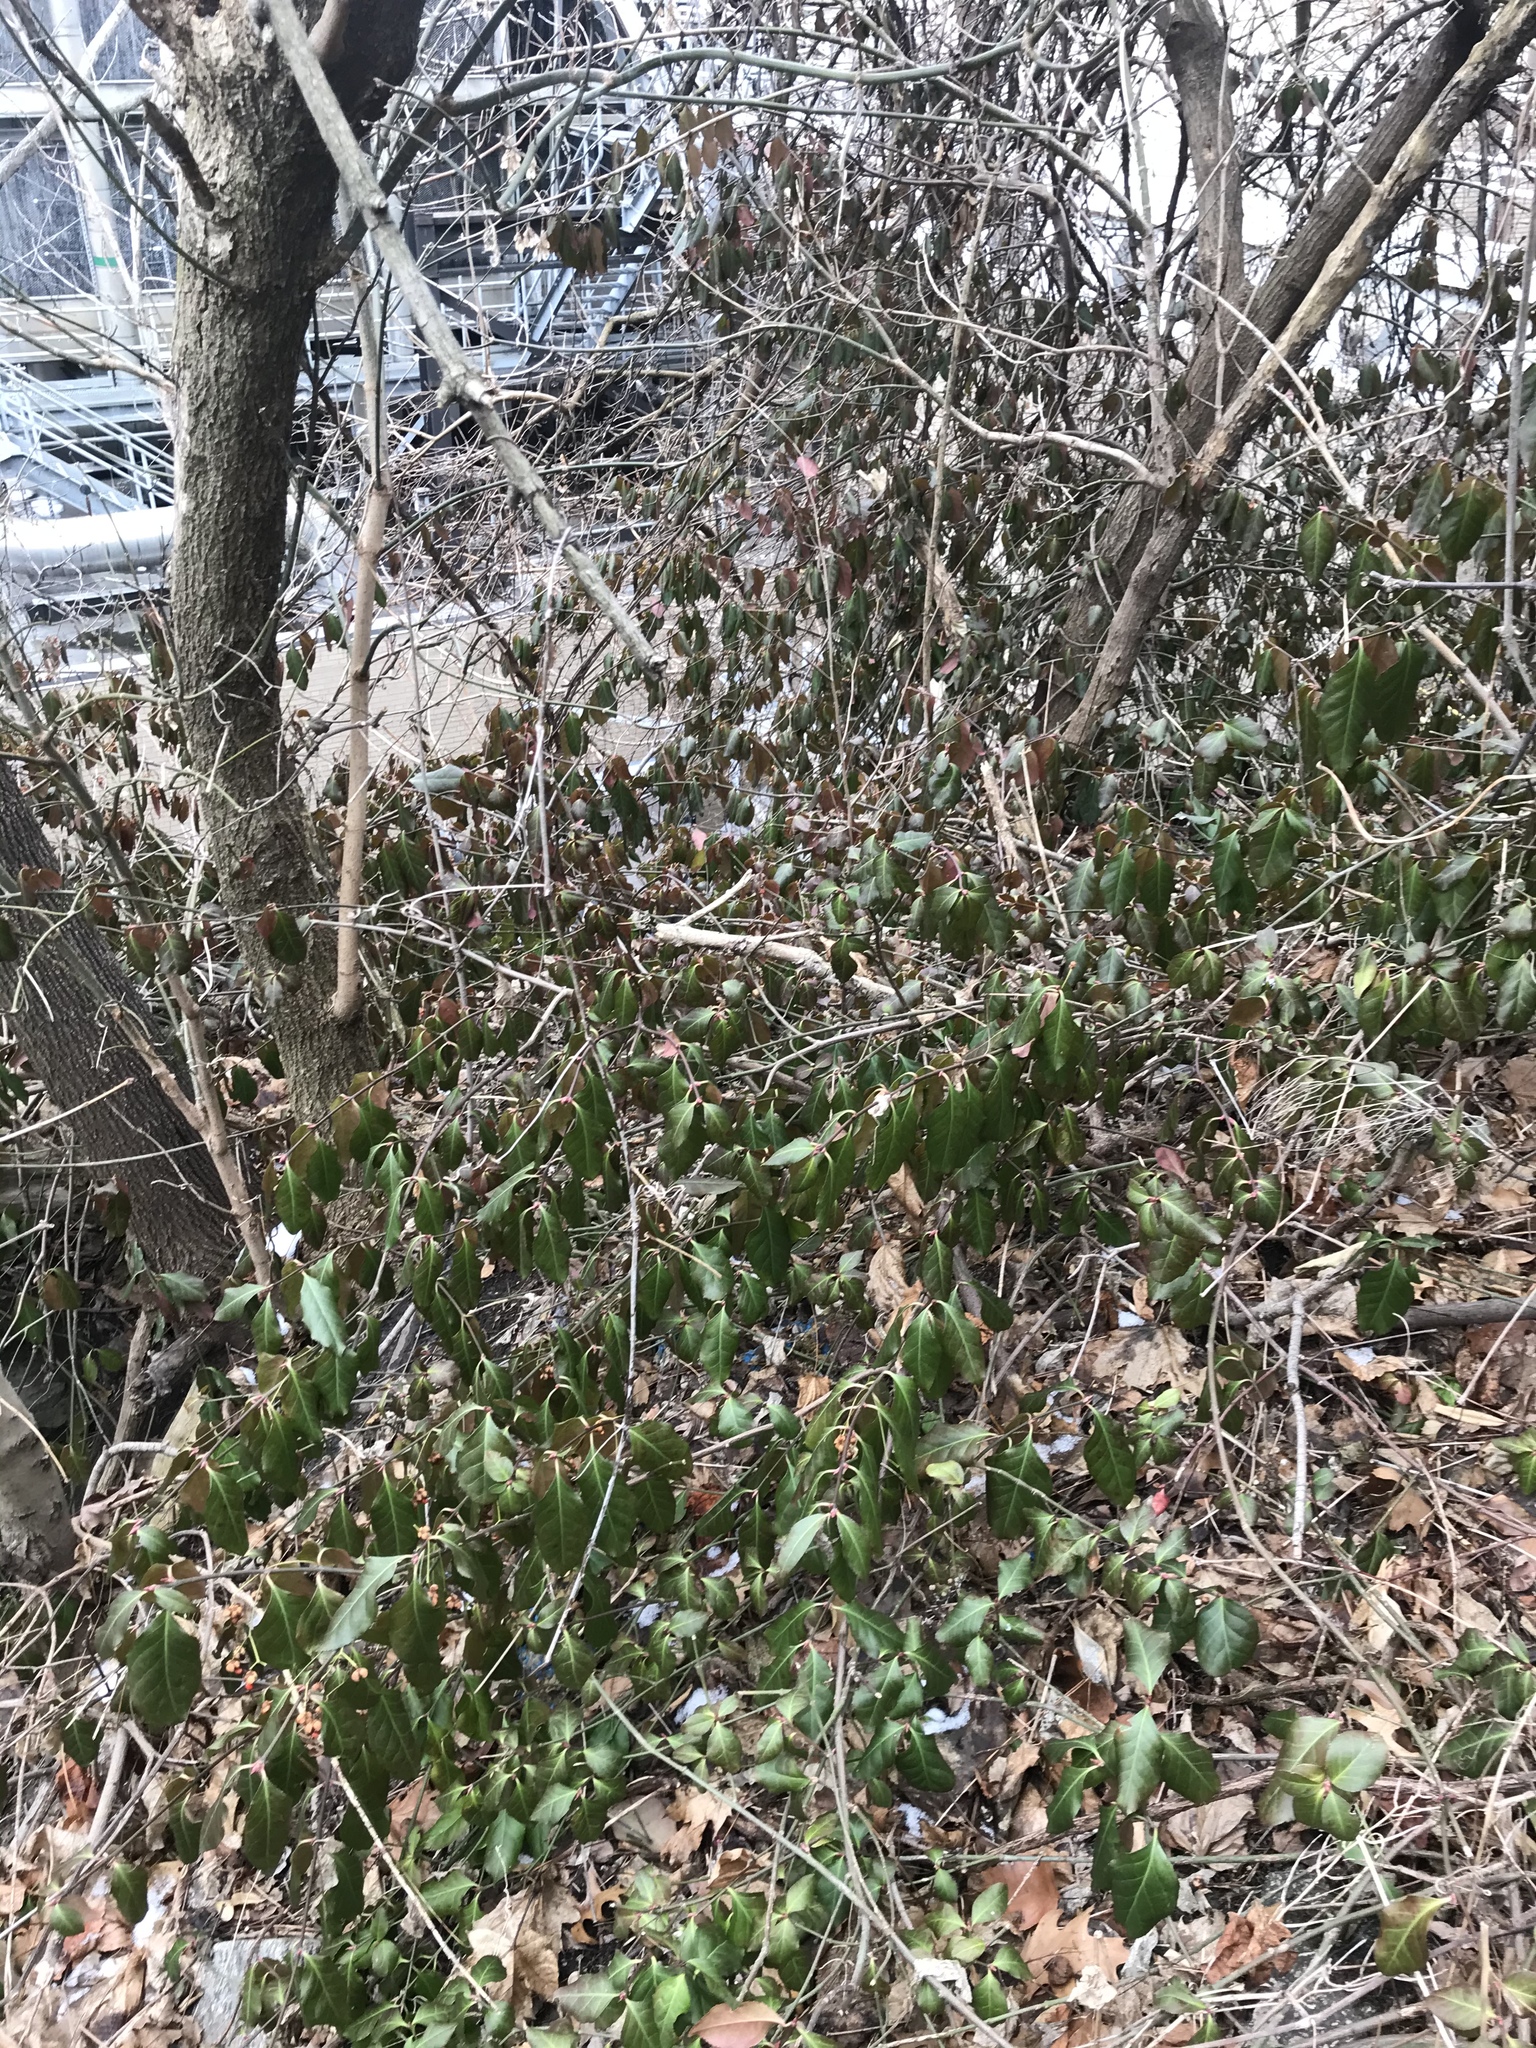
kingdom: Plantae
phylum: Tracheophyta
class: Magnoliopsida
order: Celastrales
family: Celastraceae
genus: Euonymus
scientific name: Euonymus fortunei
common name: Climbing euonymus
